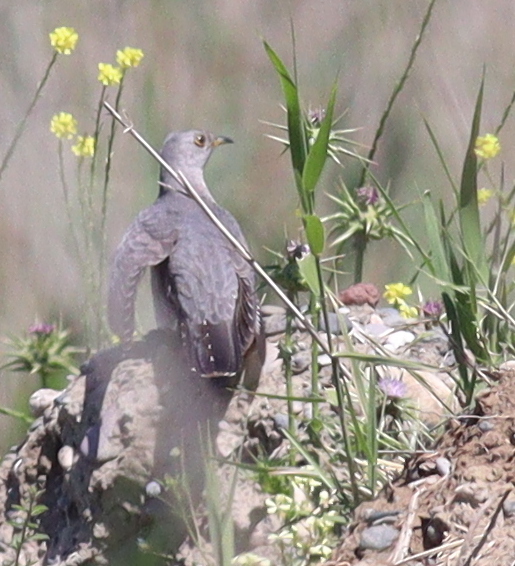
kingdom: Animalia
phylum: Chordata
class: Aves
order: Cuculiformes
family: Cuculidae
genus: Cuculus
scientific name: Cuculus canorus
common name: Common cuckoo
